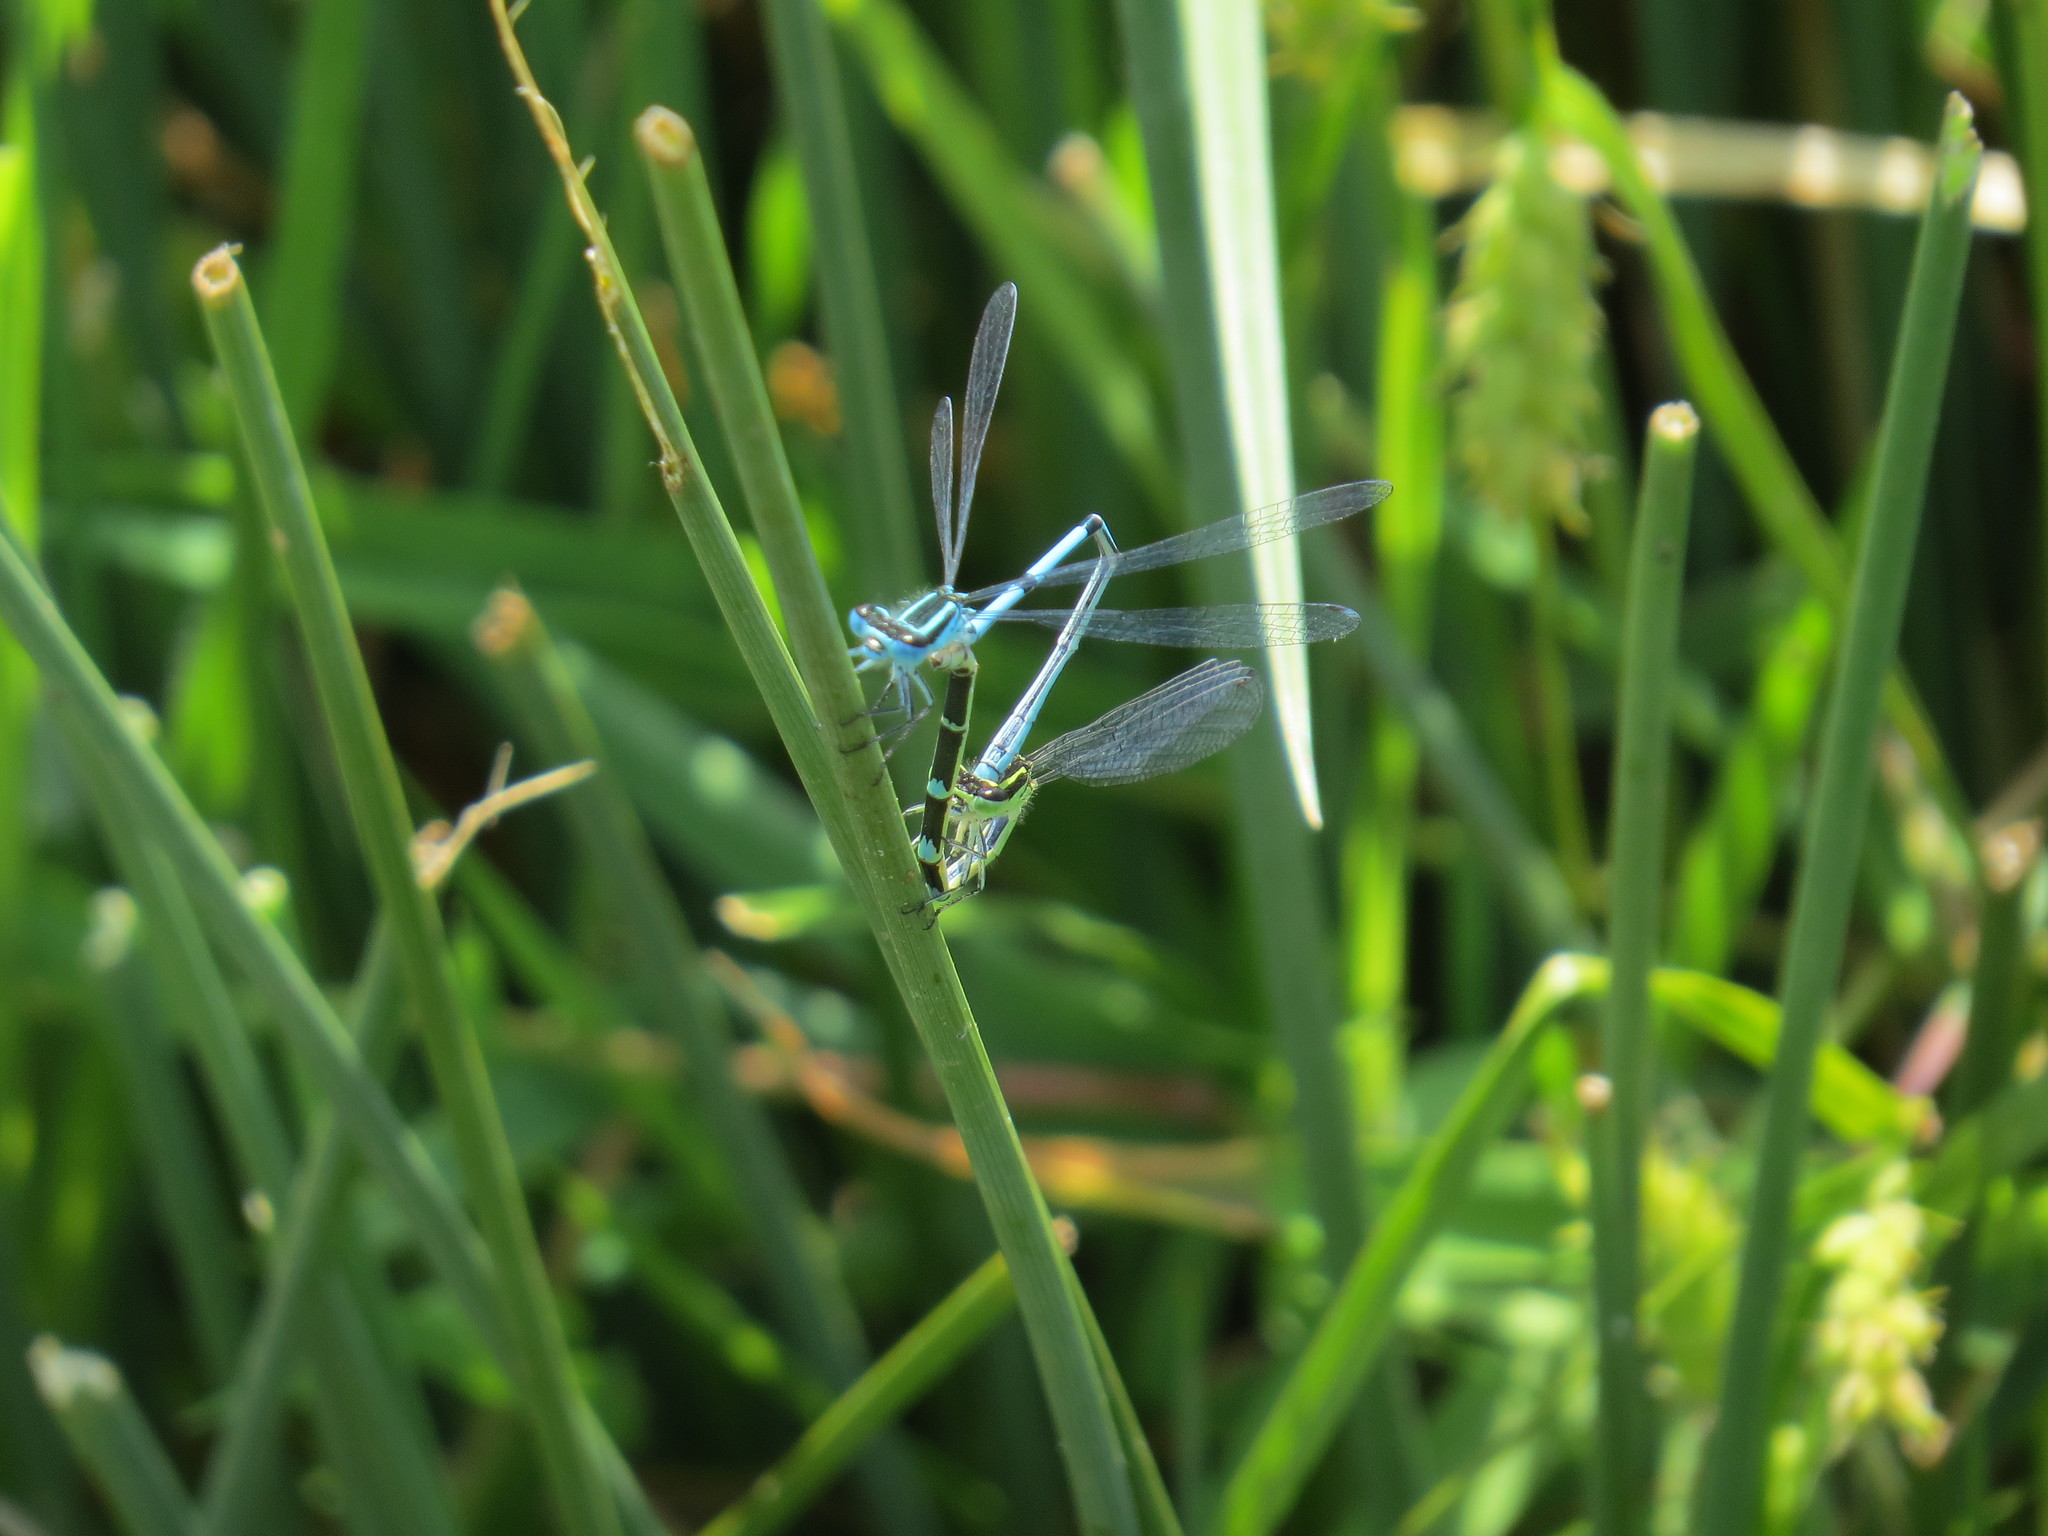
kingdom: Animalia
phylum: Arthropoda
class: Insecta
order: Odonata
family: Coenagrionidae
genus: Coenagrion
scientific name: Coenagrion puella
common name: Azure damselfly
